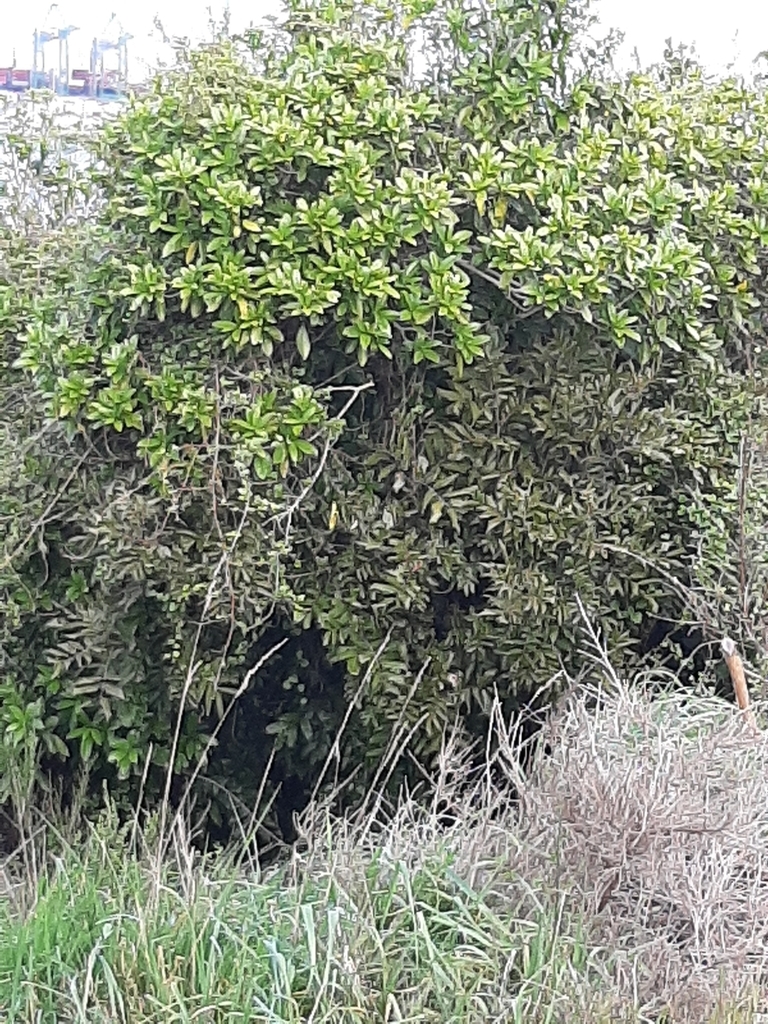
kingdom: Plantae
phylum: Tracheophyta
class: Magnoliopsida
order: Sapindales
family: Sapindaceae
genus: Alectryon
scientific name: Alectryon excelsus
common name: Three kings titoki
